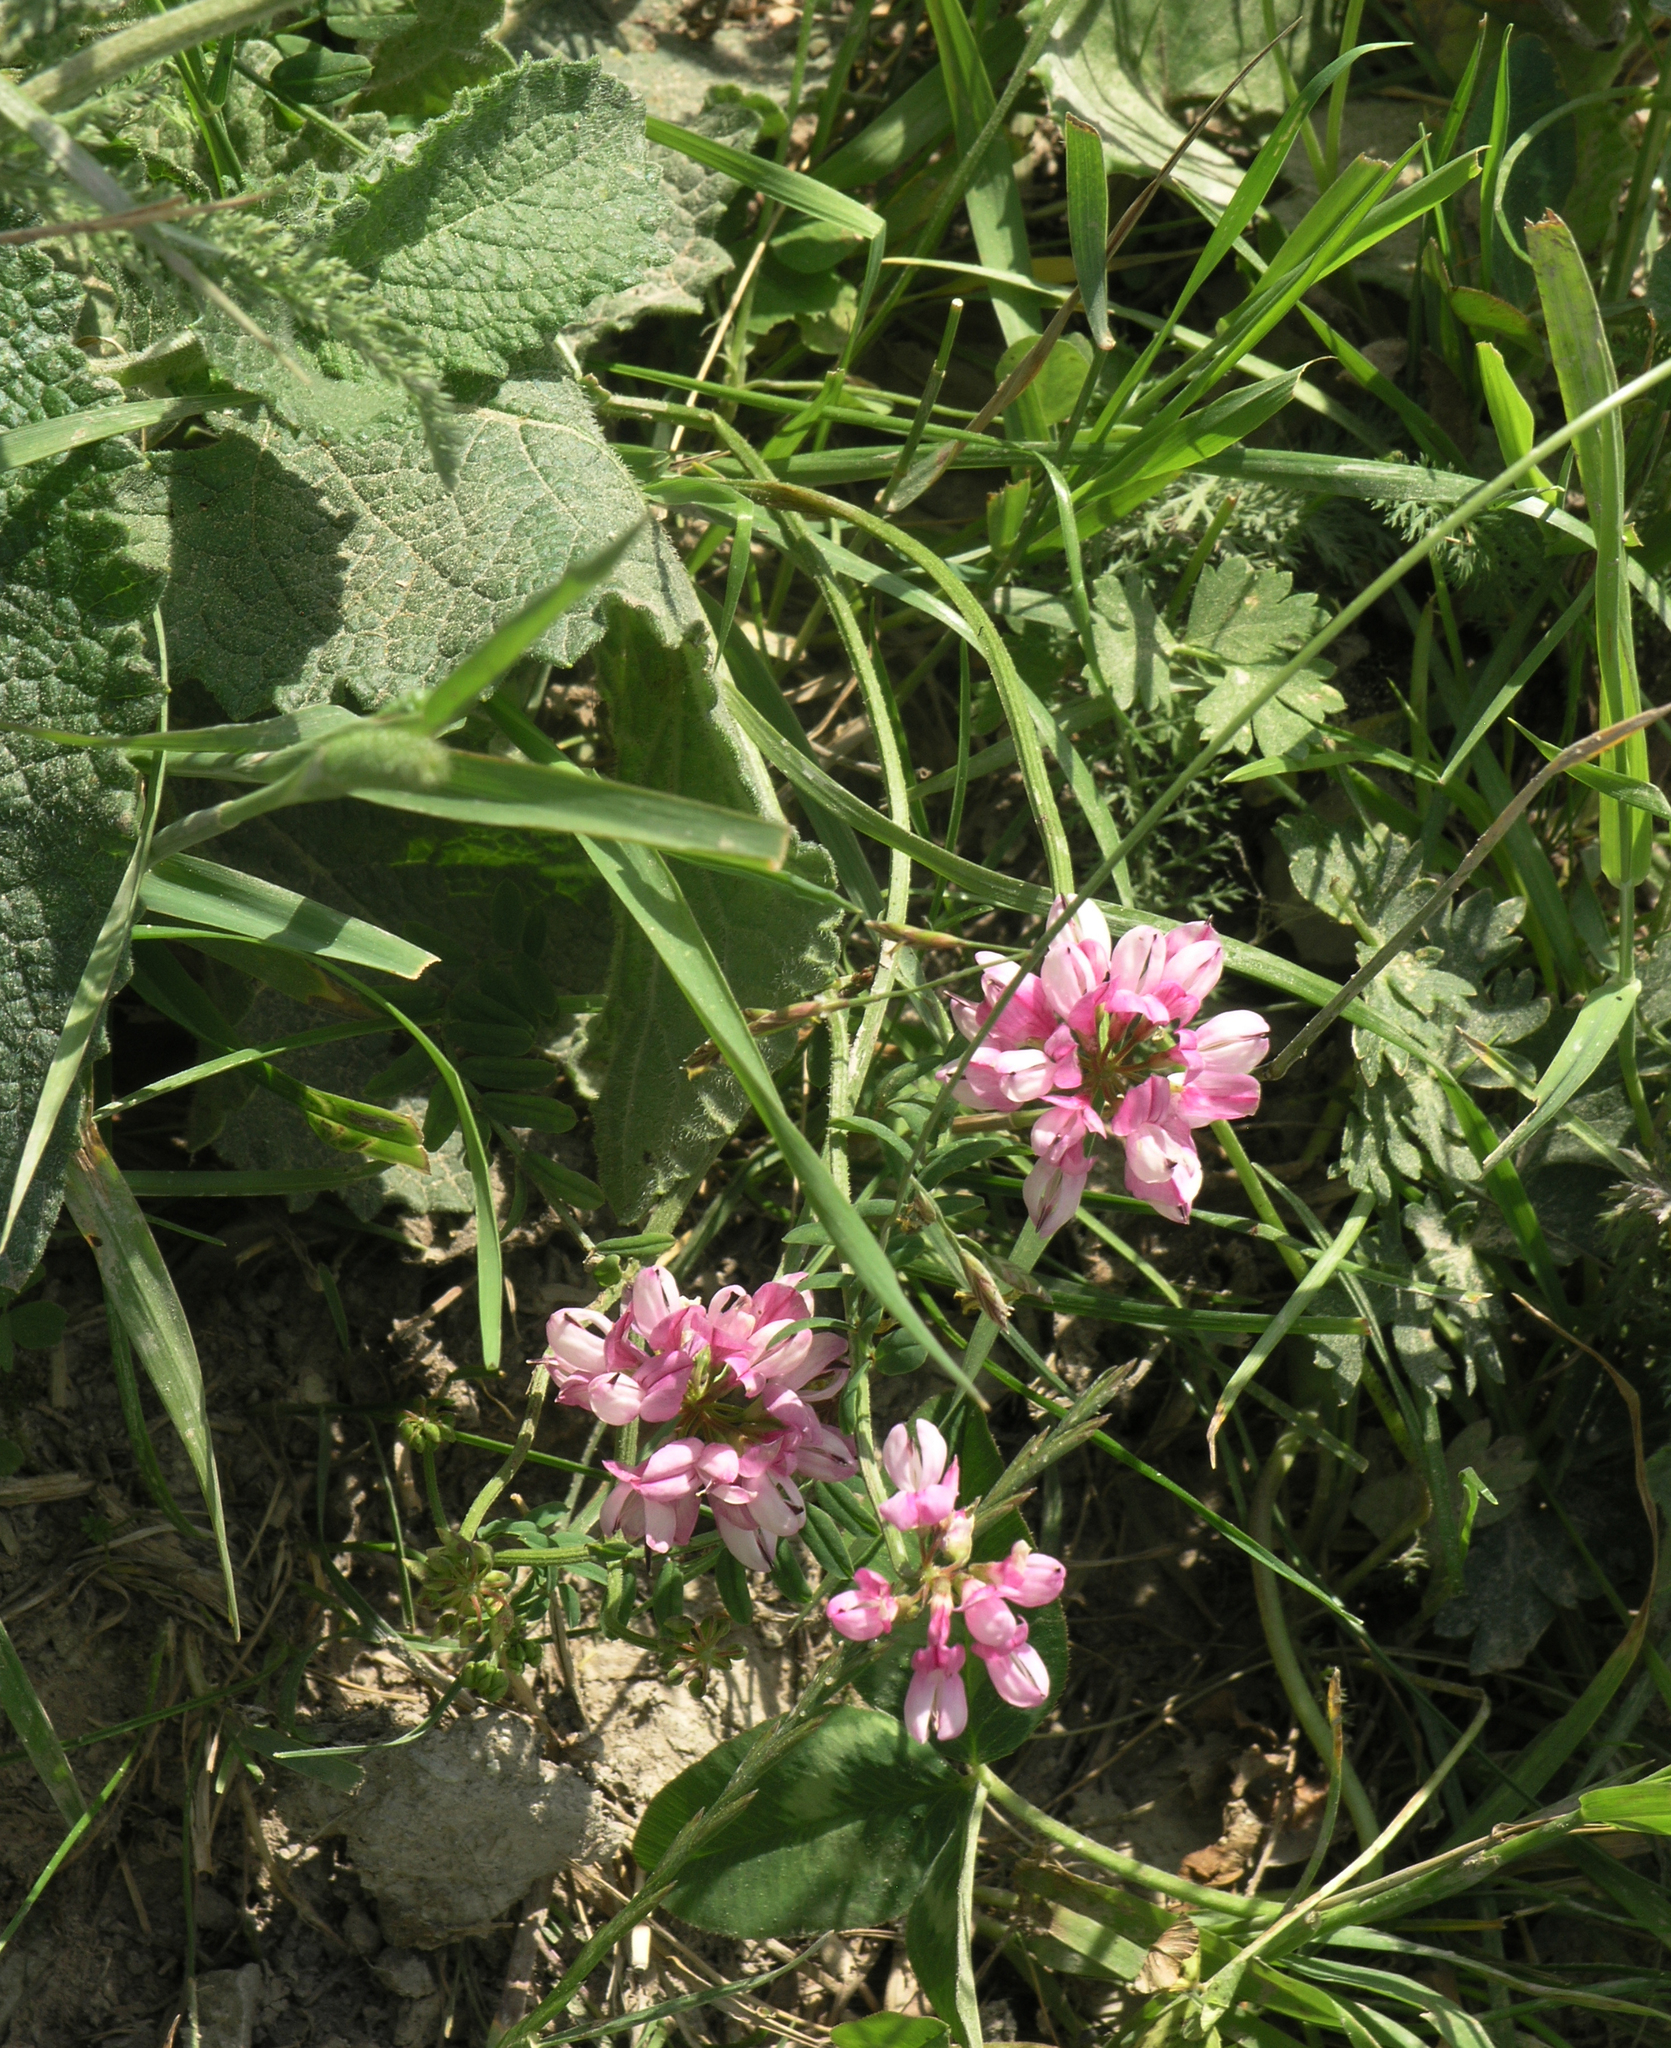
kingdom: Plantae
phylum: Tracheophyta
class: Magnoliopsida
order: Fabales
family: Fabaceae
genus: Coronilla
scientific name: Coronilla varia
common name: Crownvetch
